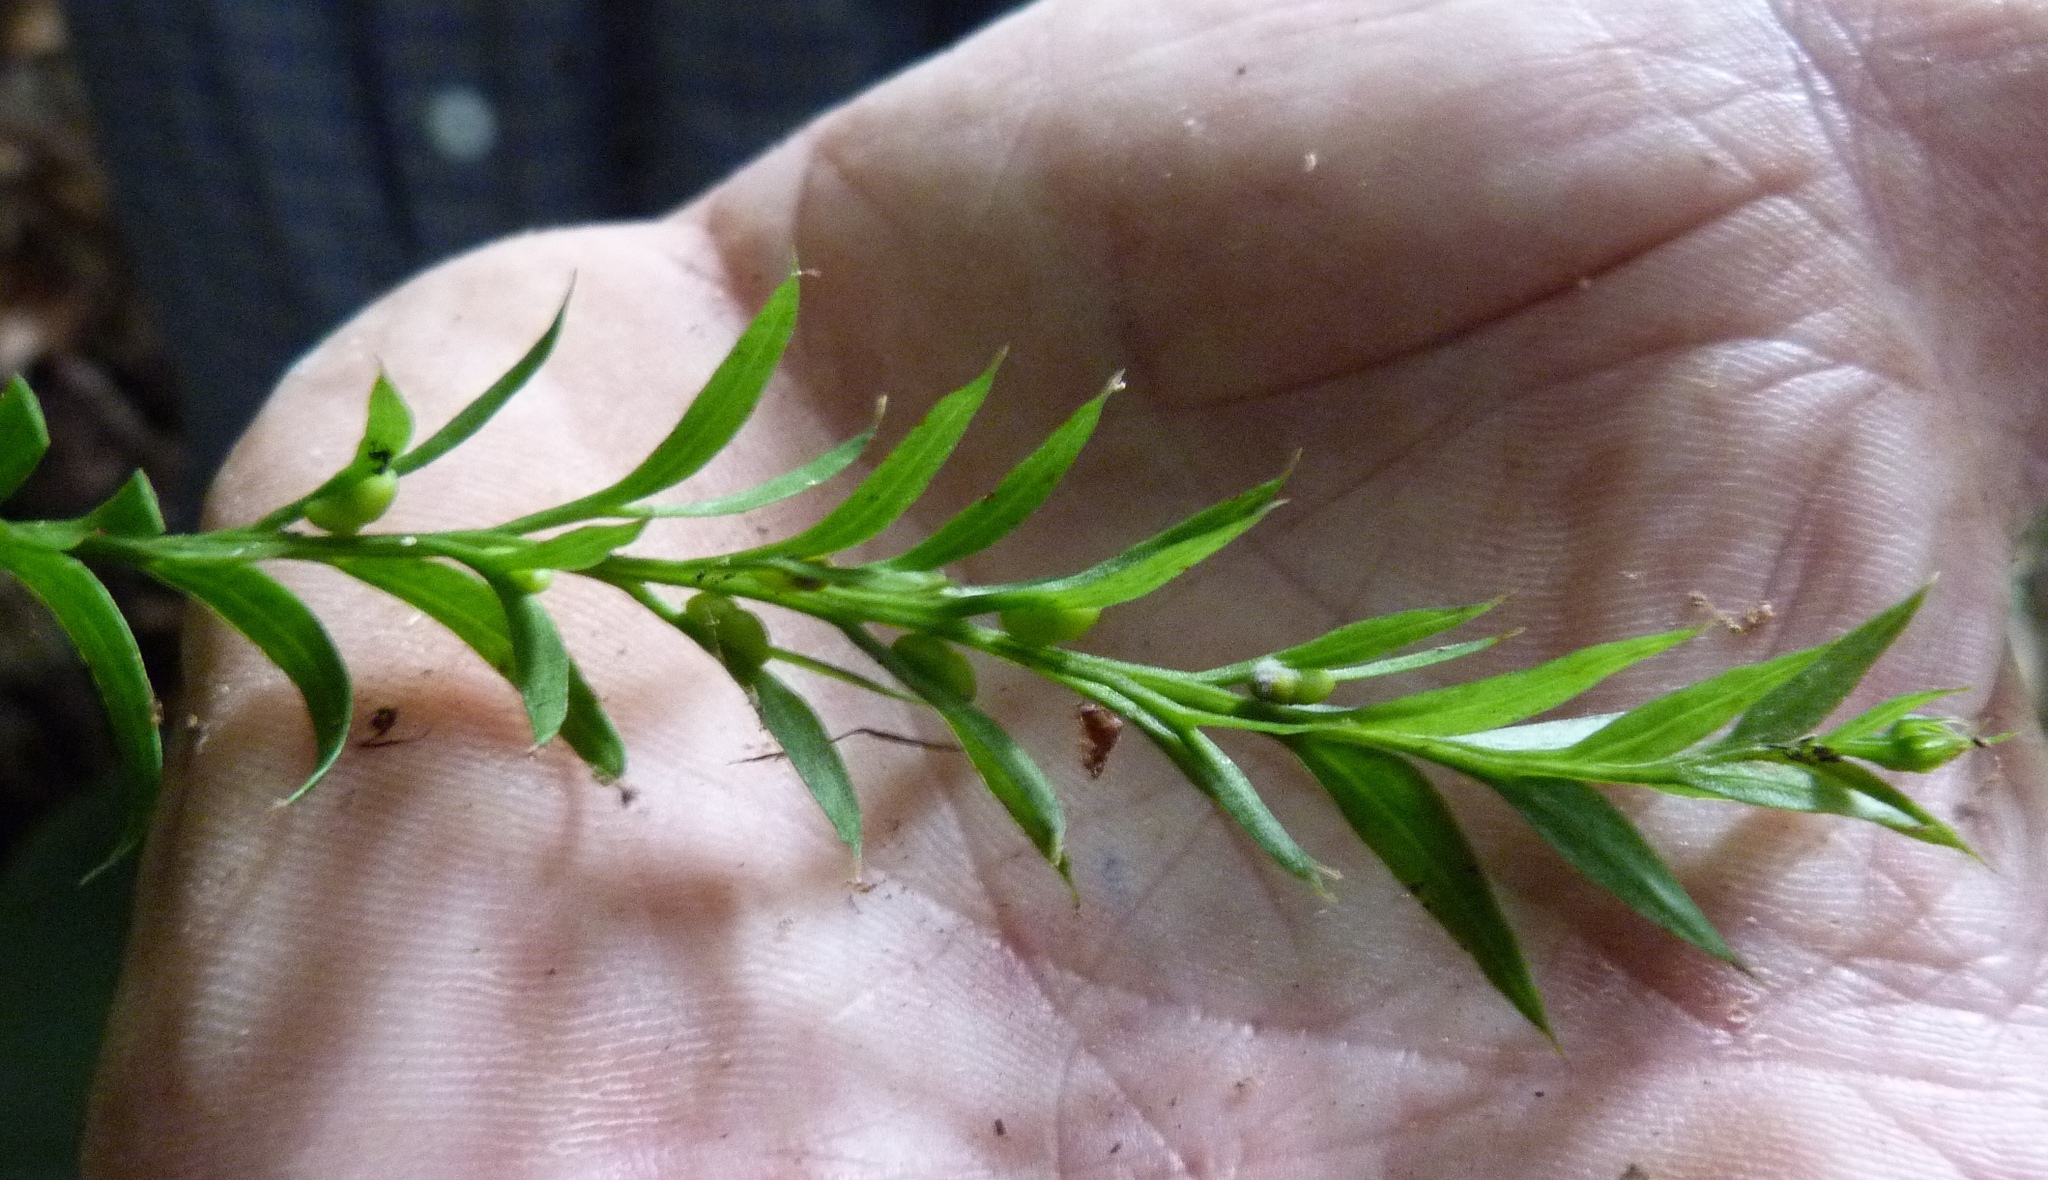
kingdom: Plantae
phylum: Tracheophyta
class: Polypodiopsida
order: Psilotales
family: Psilotaceae
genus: Tmesipteris
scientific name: Tmesipteris elongata
